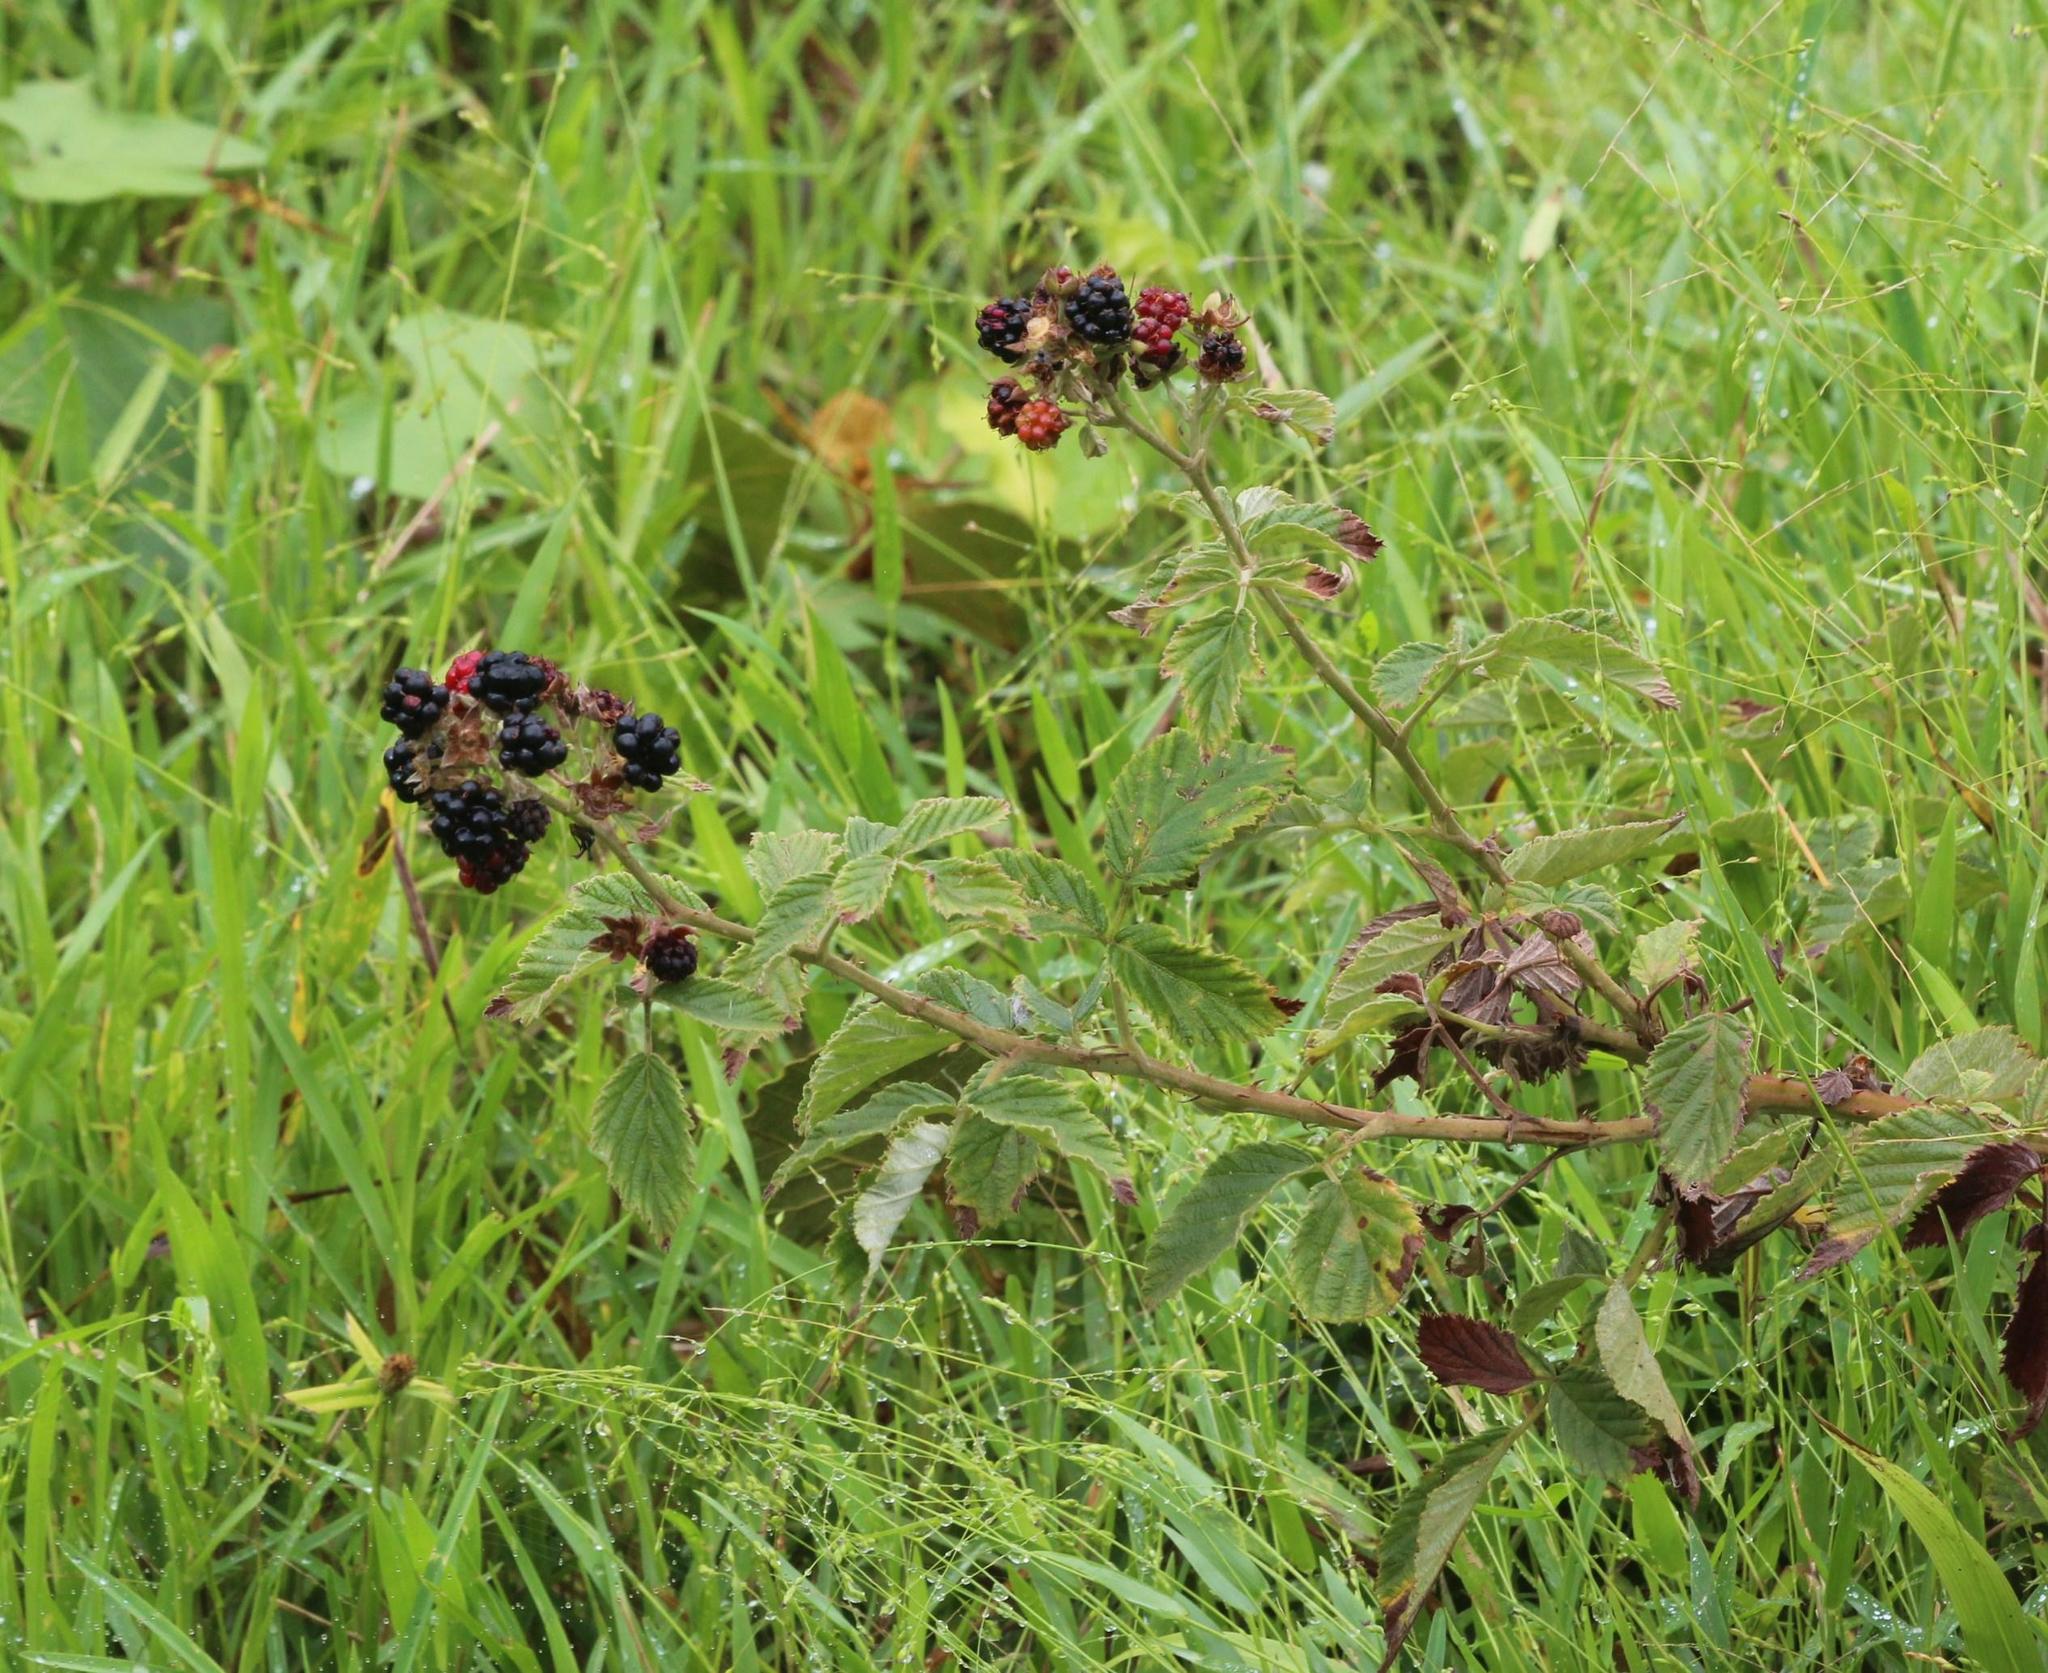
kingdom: Plantae
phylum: Tracheophyta
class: Magnoliopsida
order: Rosales
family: Rosaceae
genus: Rubus
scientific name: Rubus rigidus
